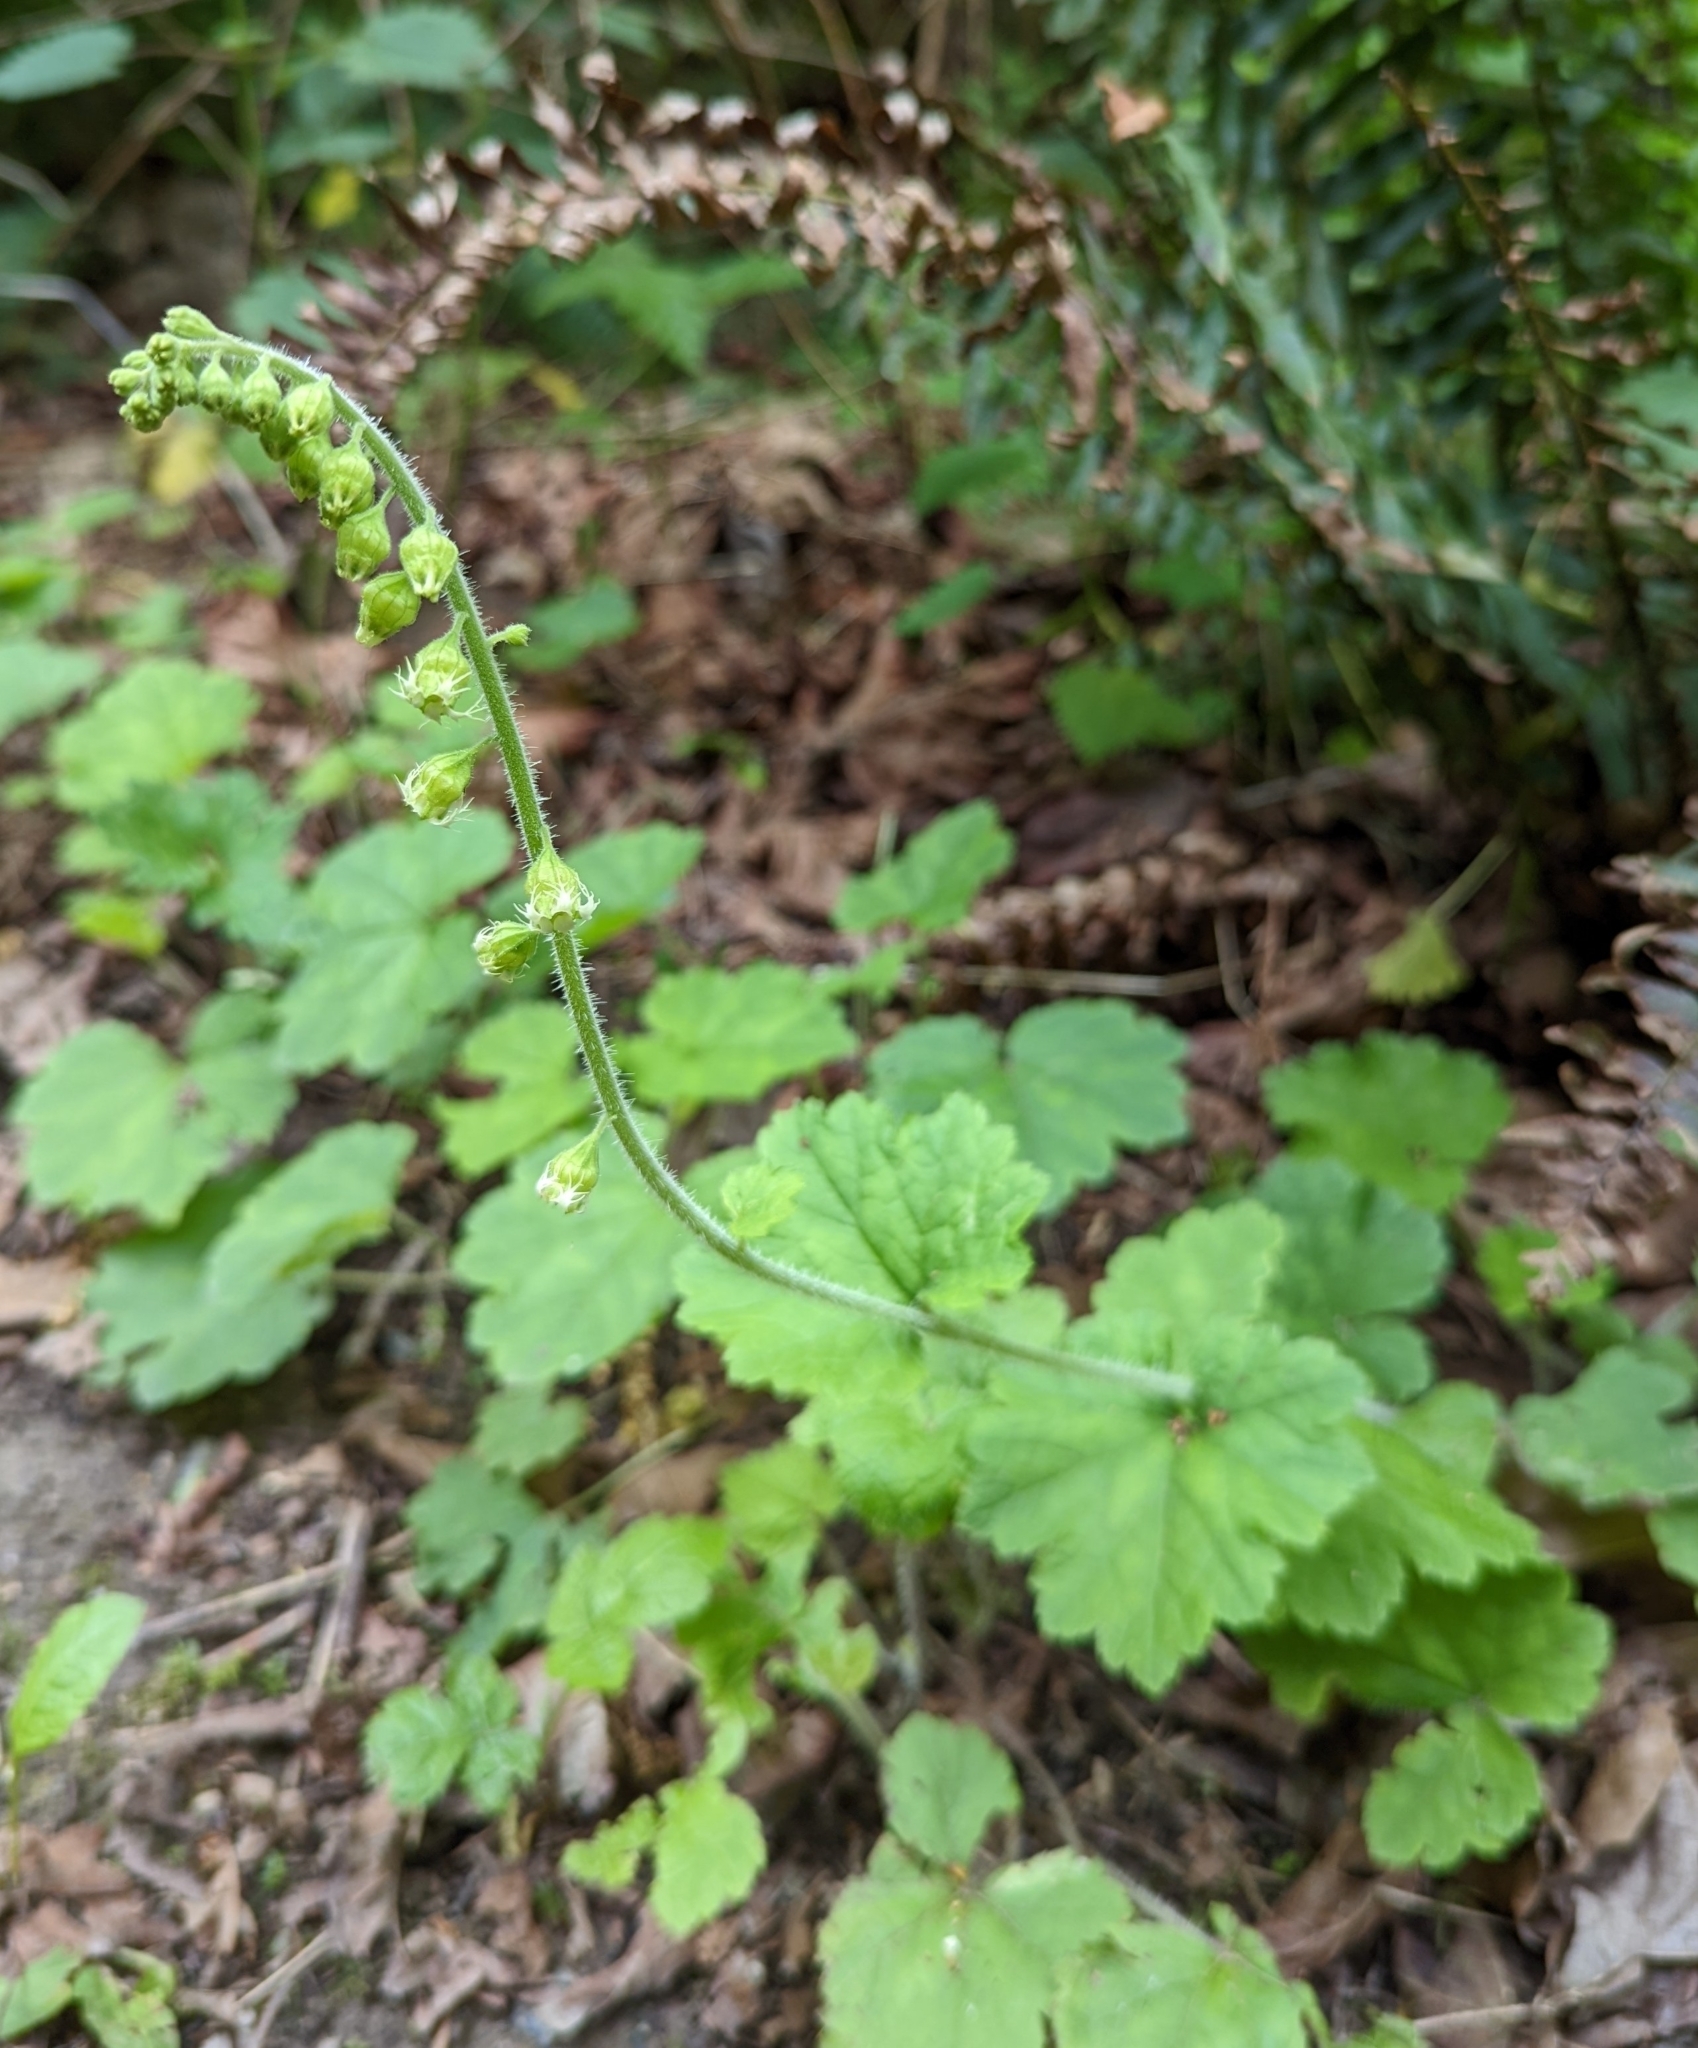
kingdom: Plantae
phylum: Tracheophyta
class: Magnoliopsida
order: Saxifragales
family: Saxifragaceae
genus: Tellima
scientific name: Tellima grandiflora
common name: Fringecups
